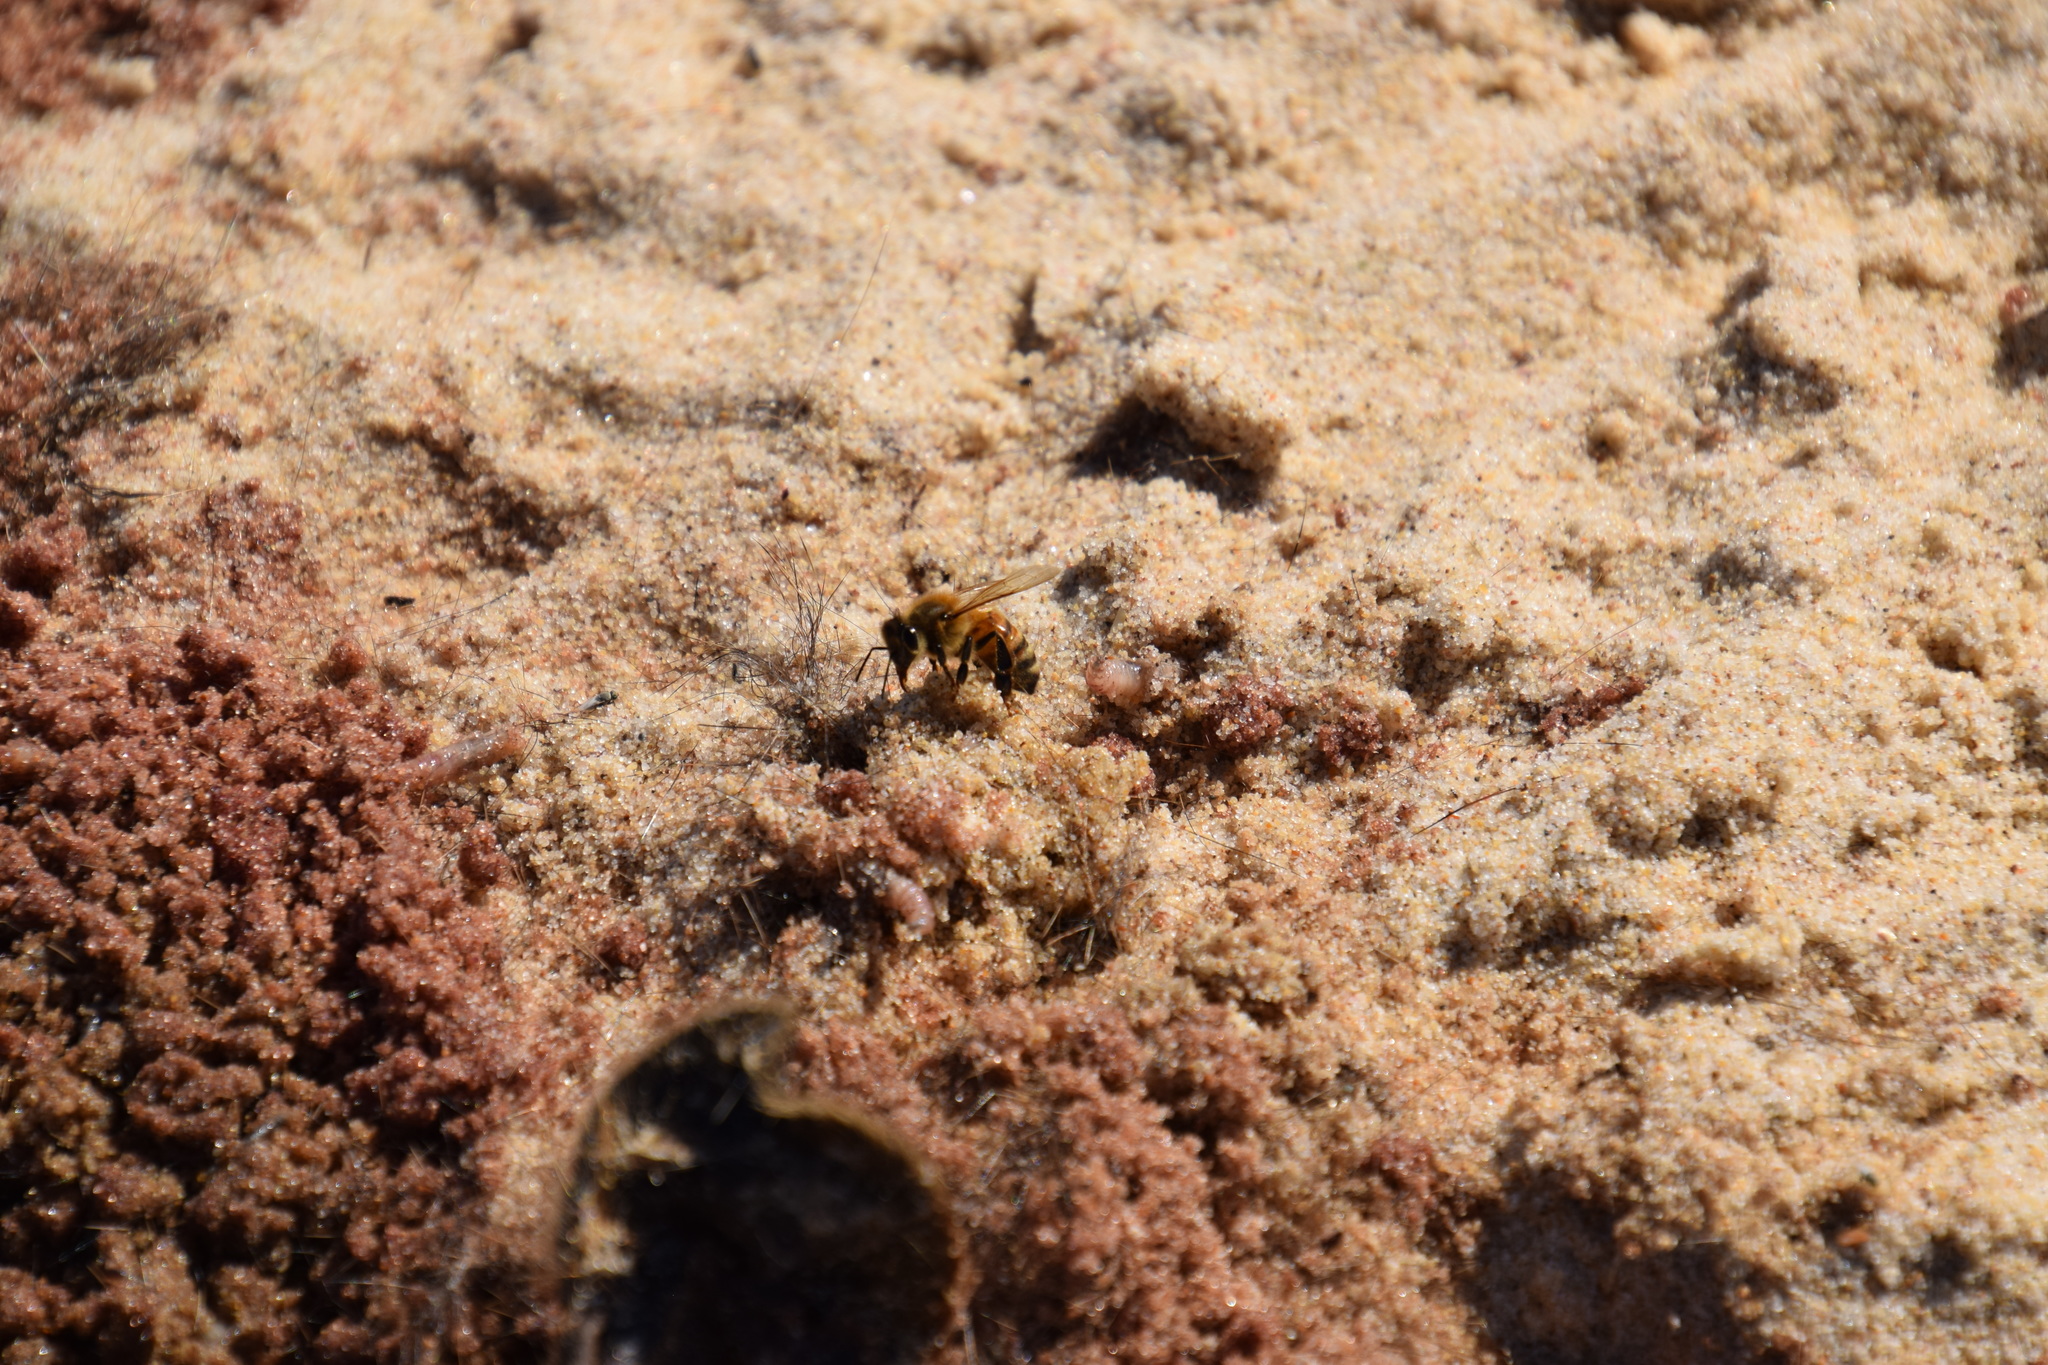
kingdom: Animalia
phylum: Arthropoda
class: Insecta
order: Hymenoptera
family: Apidae
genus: Apis
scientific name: Apis mellifera
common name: Honey bee
